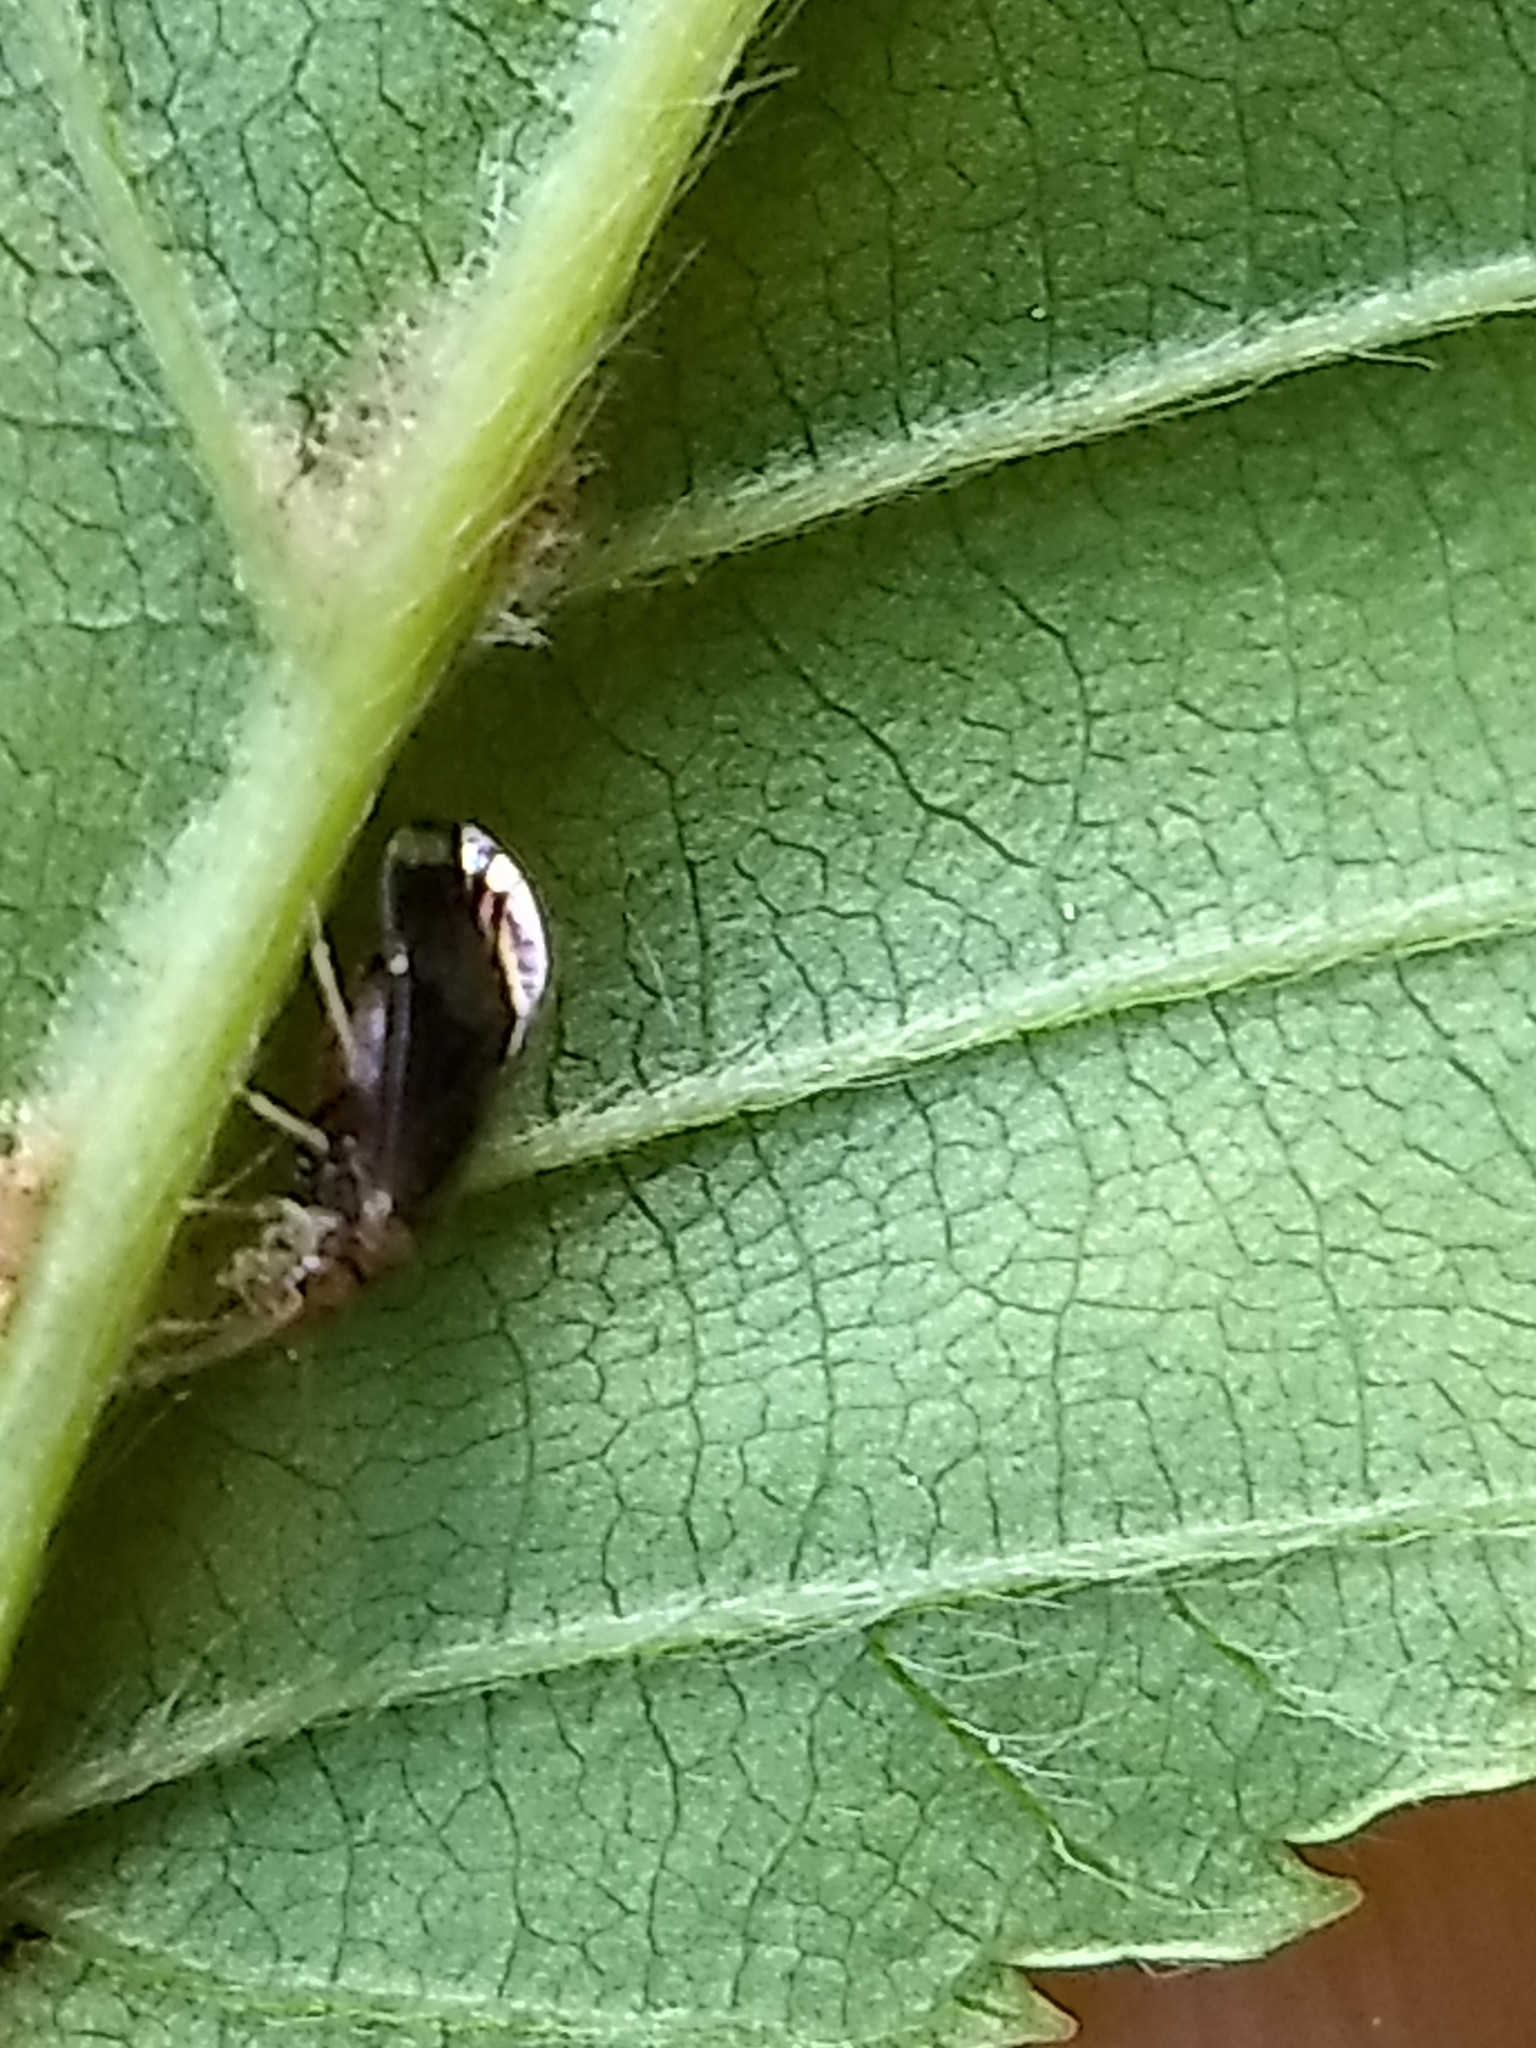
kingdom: Animalia
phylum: Arthropoda
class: Insecta
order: Psocodea
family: Amphipsocidae
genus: Polypsocus
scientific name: Polypsocus corruptus
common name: Corrupt barklouse
